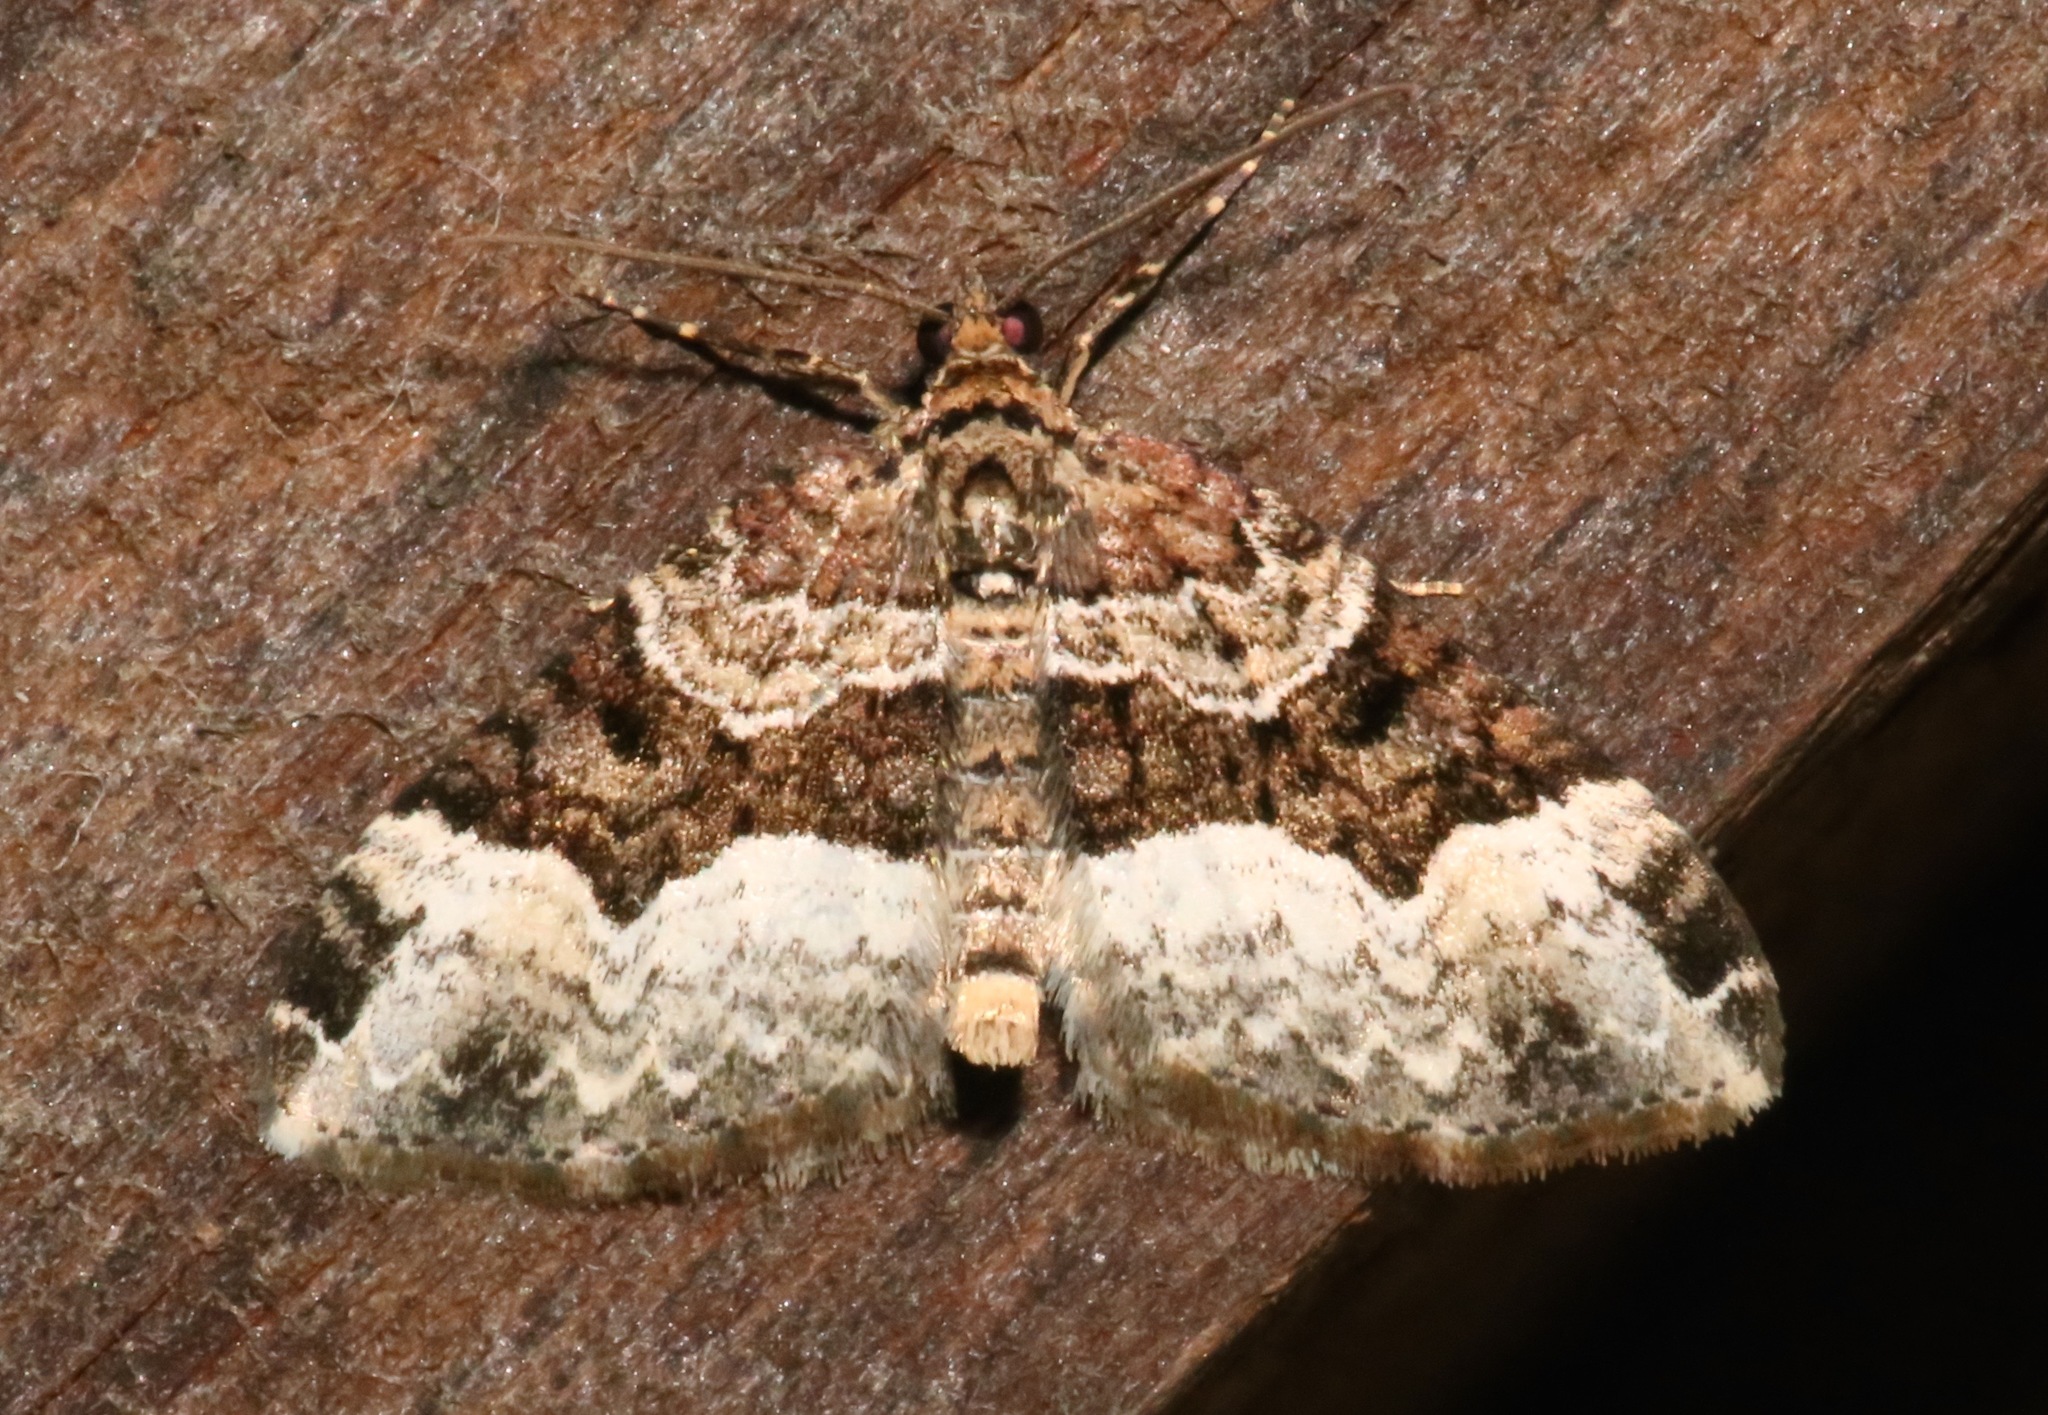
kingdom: Animalia
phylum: Arthropoda
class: Insecta
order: Lepidoptera
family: Geometridae
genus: Euphyia
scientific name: Euphyia intermediata
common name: Sharp-angled carpet
